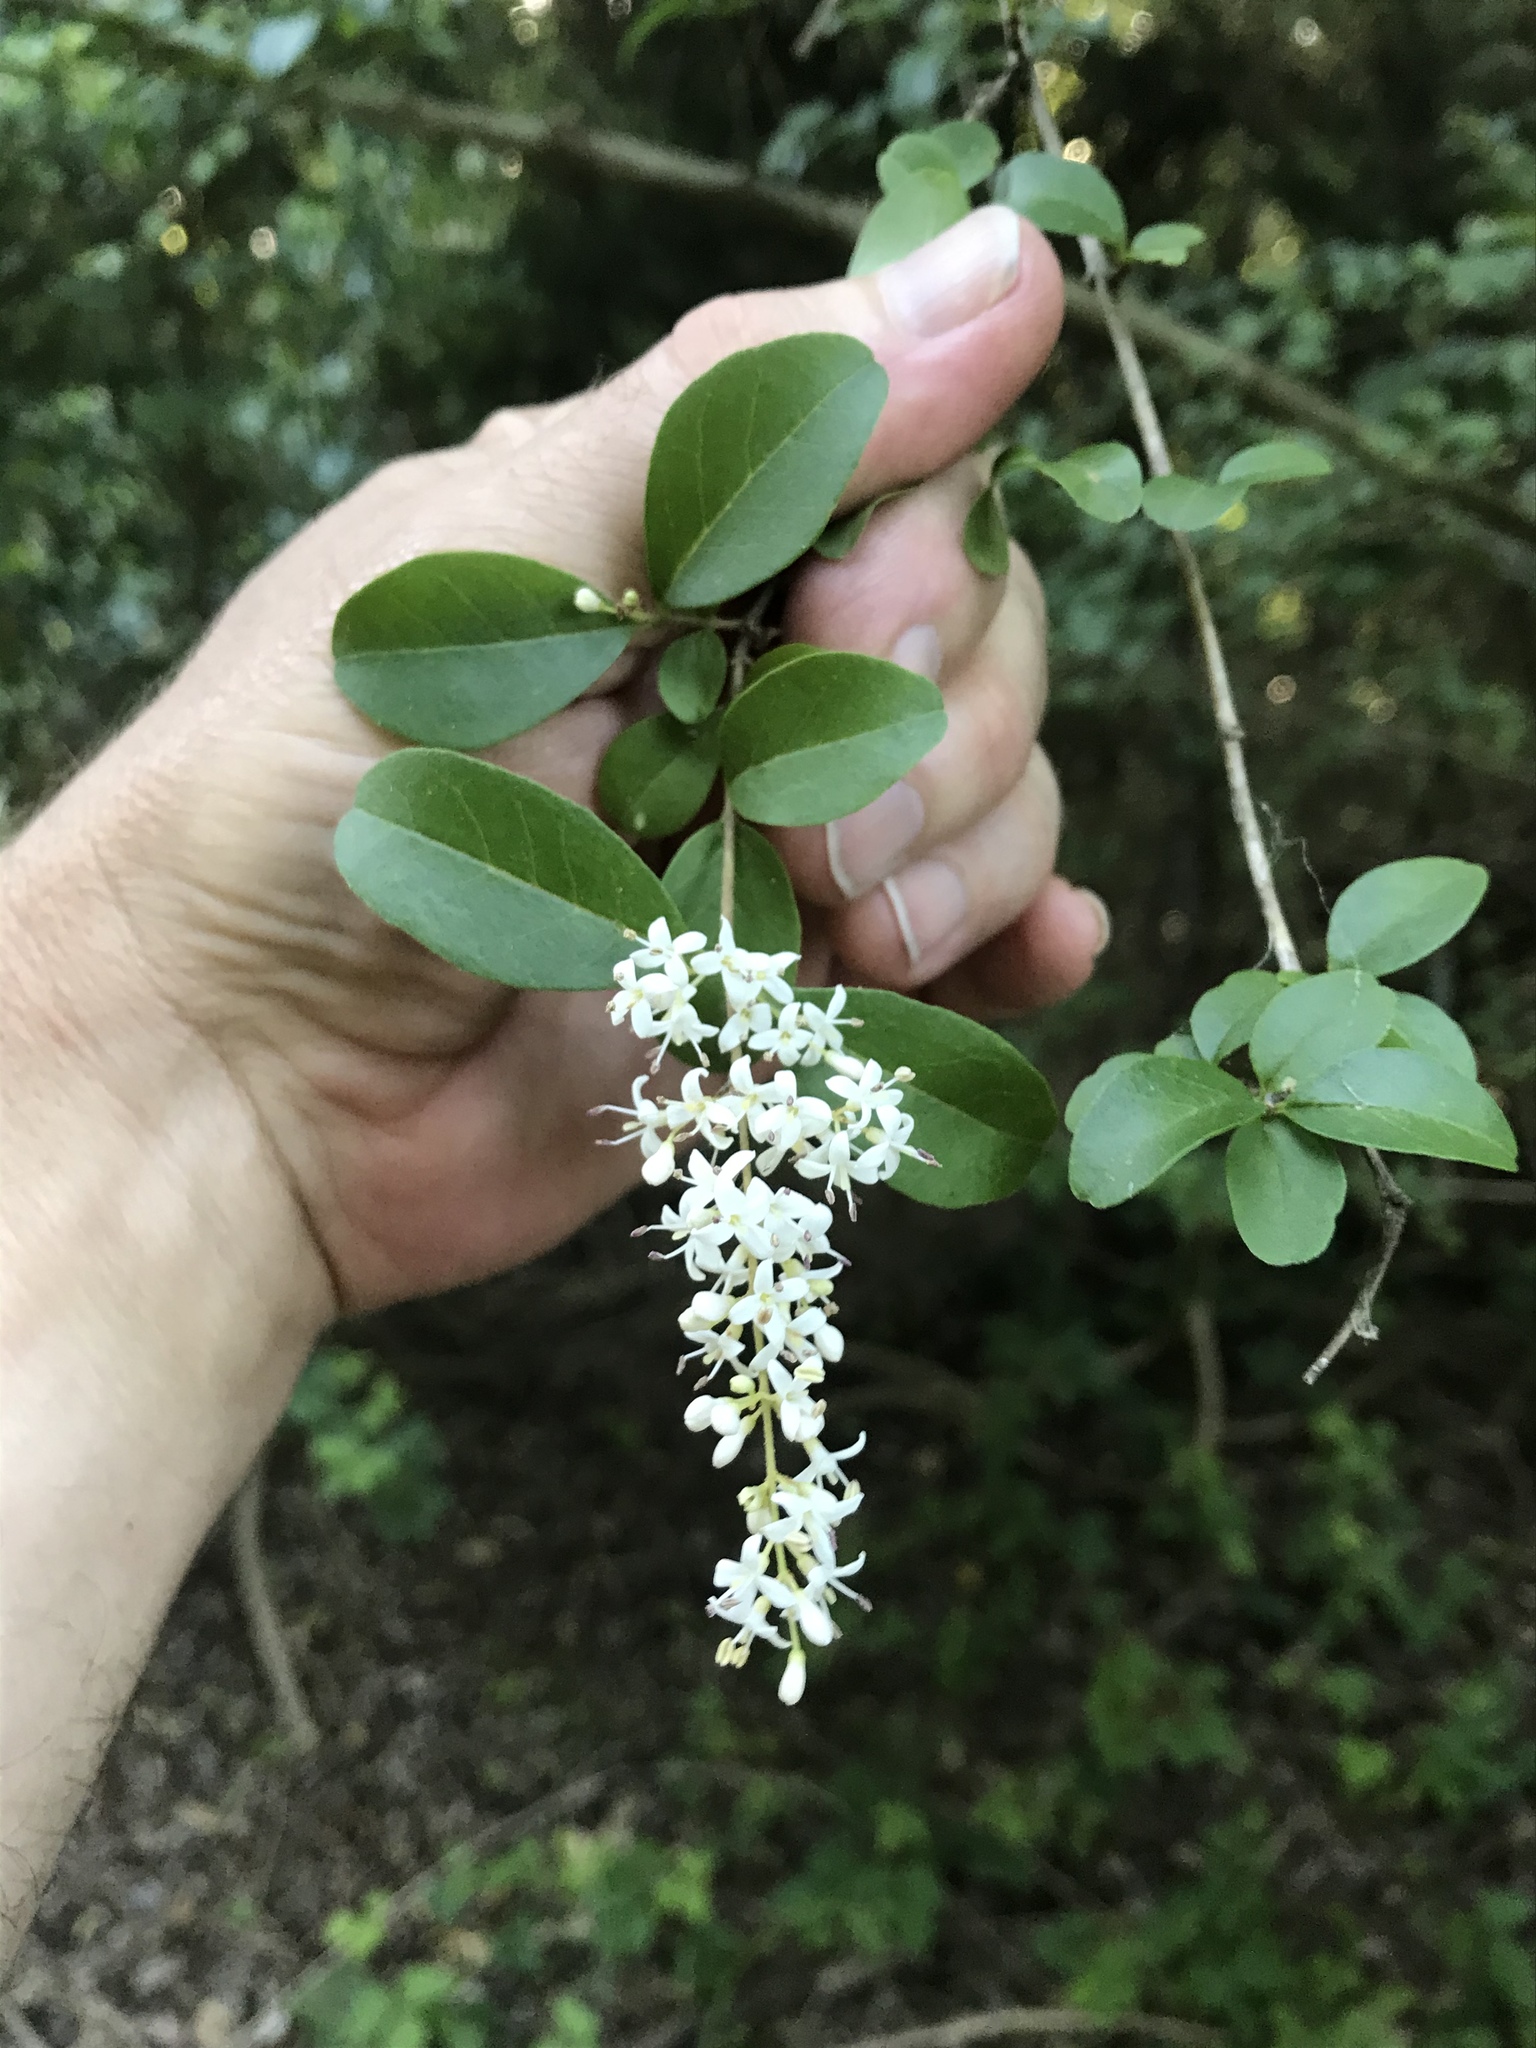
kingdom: Plantae
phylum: Tracheophyta
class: Magnoliopsida
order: Lamiales
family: Oleaceae
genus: Ligustrum
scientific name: Ligustrum sinense
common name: Chinese privet
